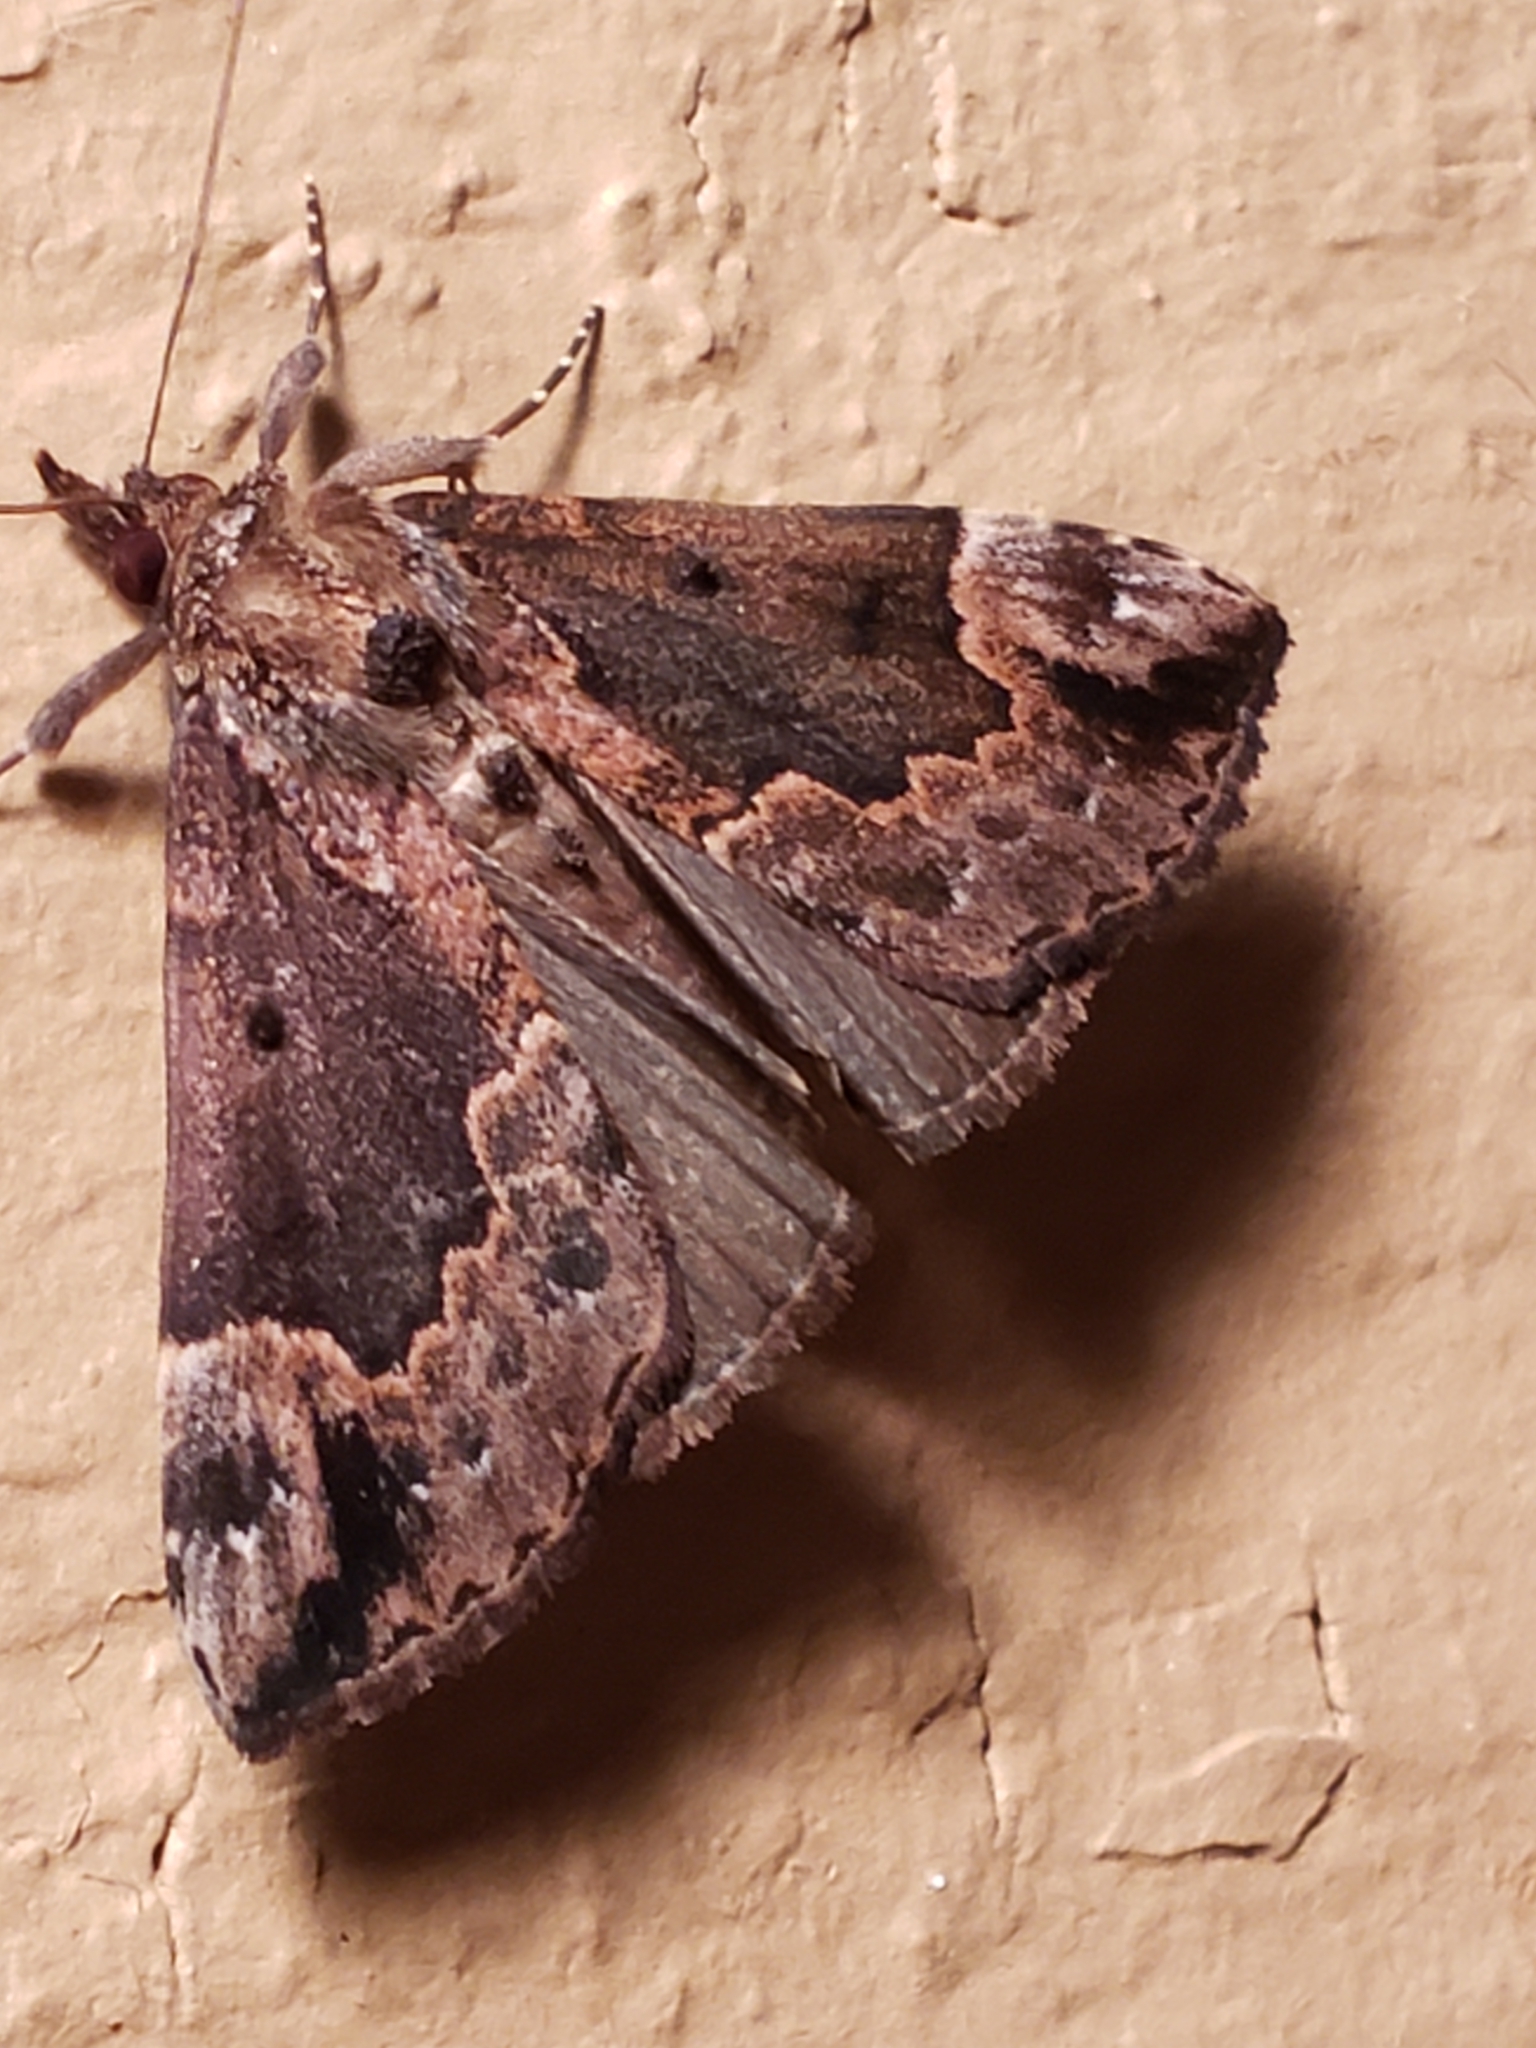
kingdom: Animalia
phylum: Arthropoda
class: Insecta
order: Lepidoptera
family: Erebidae
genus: Hypena
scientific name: Hypena palparia
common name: Mottled bomolocha moth
